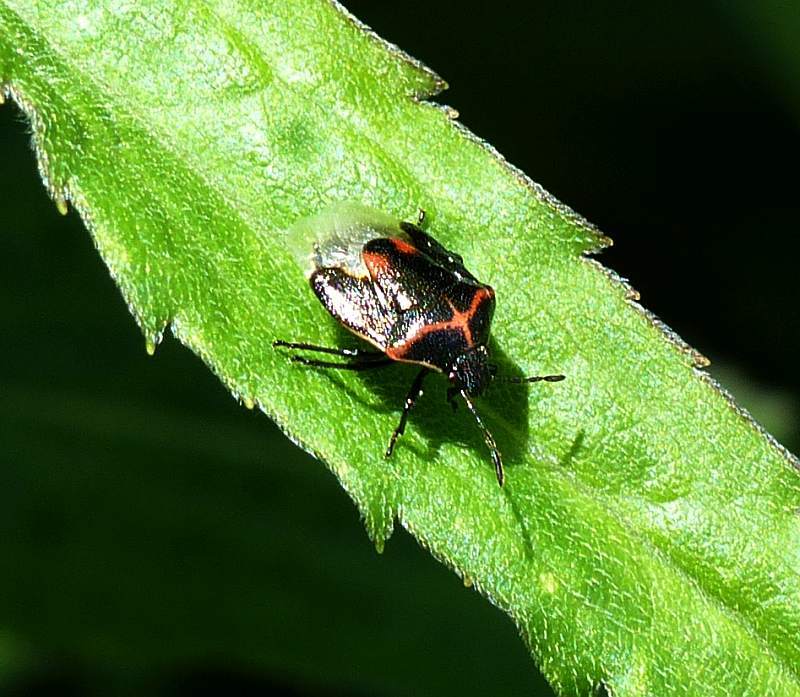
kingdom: Animalia
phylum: Arthropoda
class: Insecta
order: Hemiptera
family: Pentatomidae
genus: Cosmopepla
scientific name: Cosmopepla lintneriana
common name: Twice-stabbed stink bug
